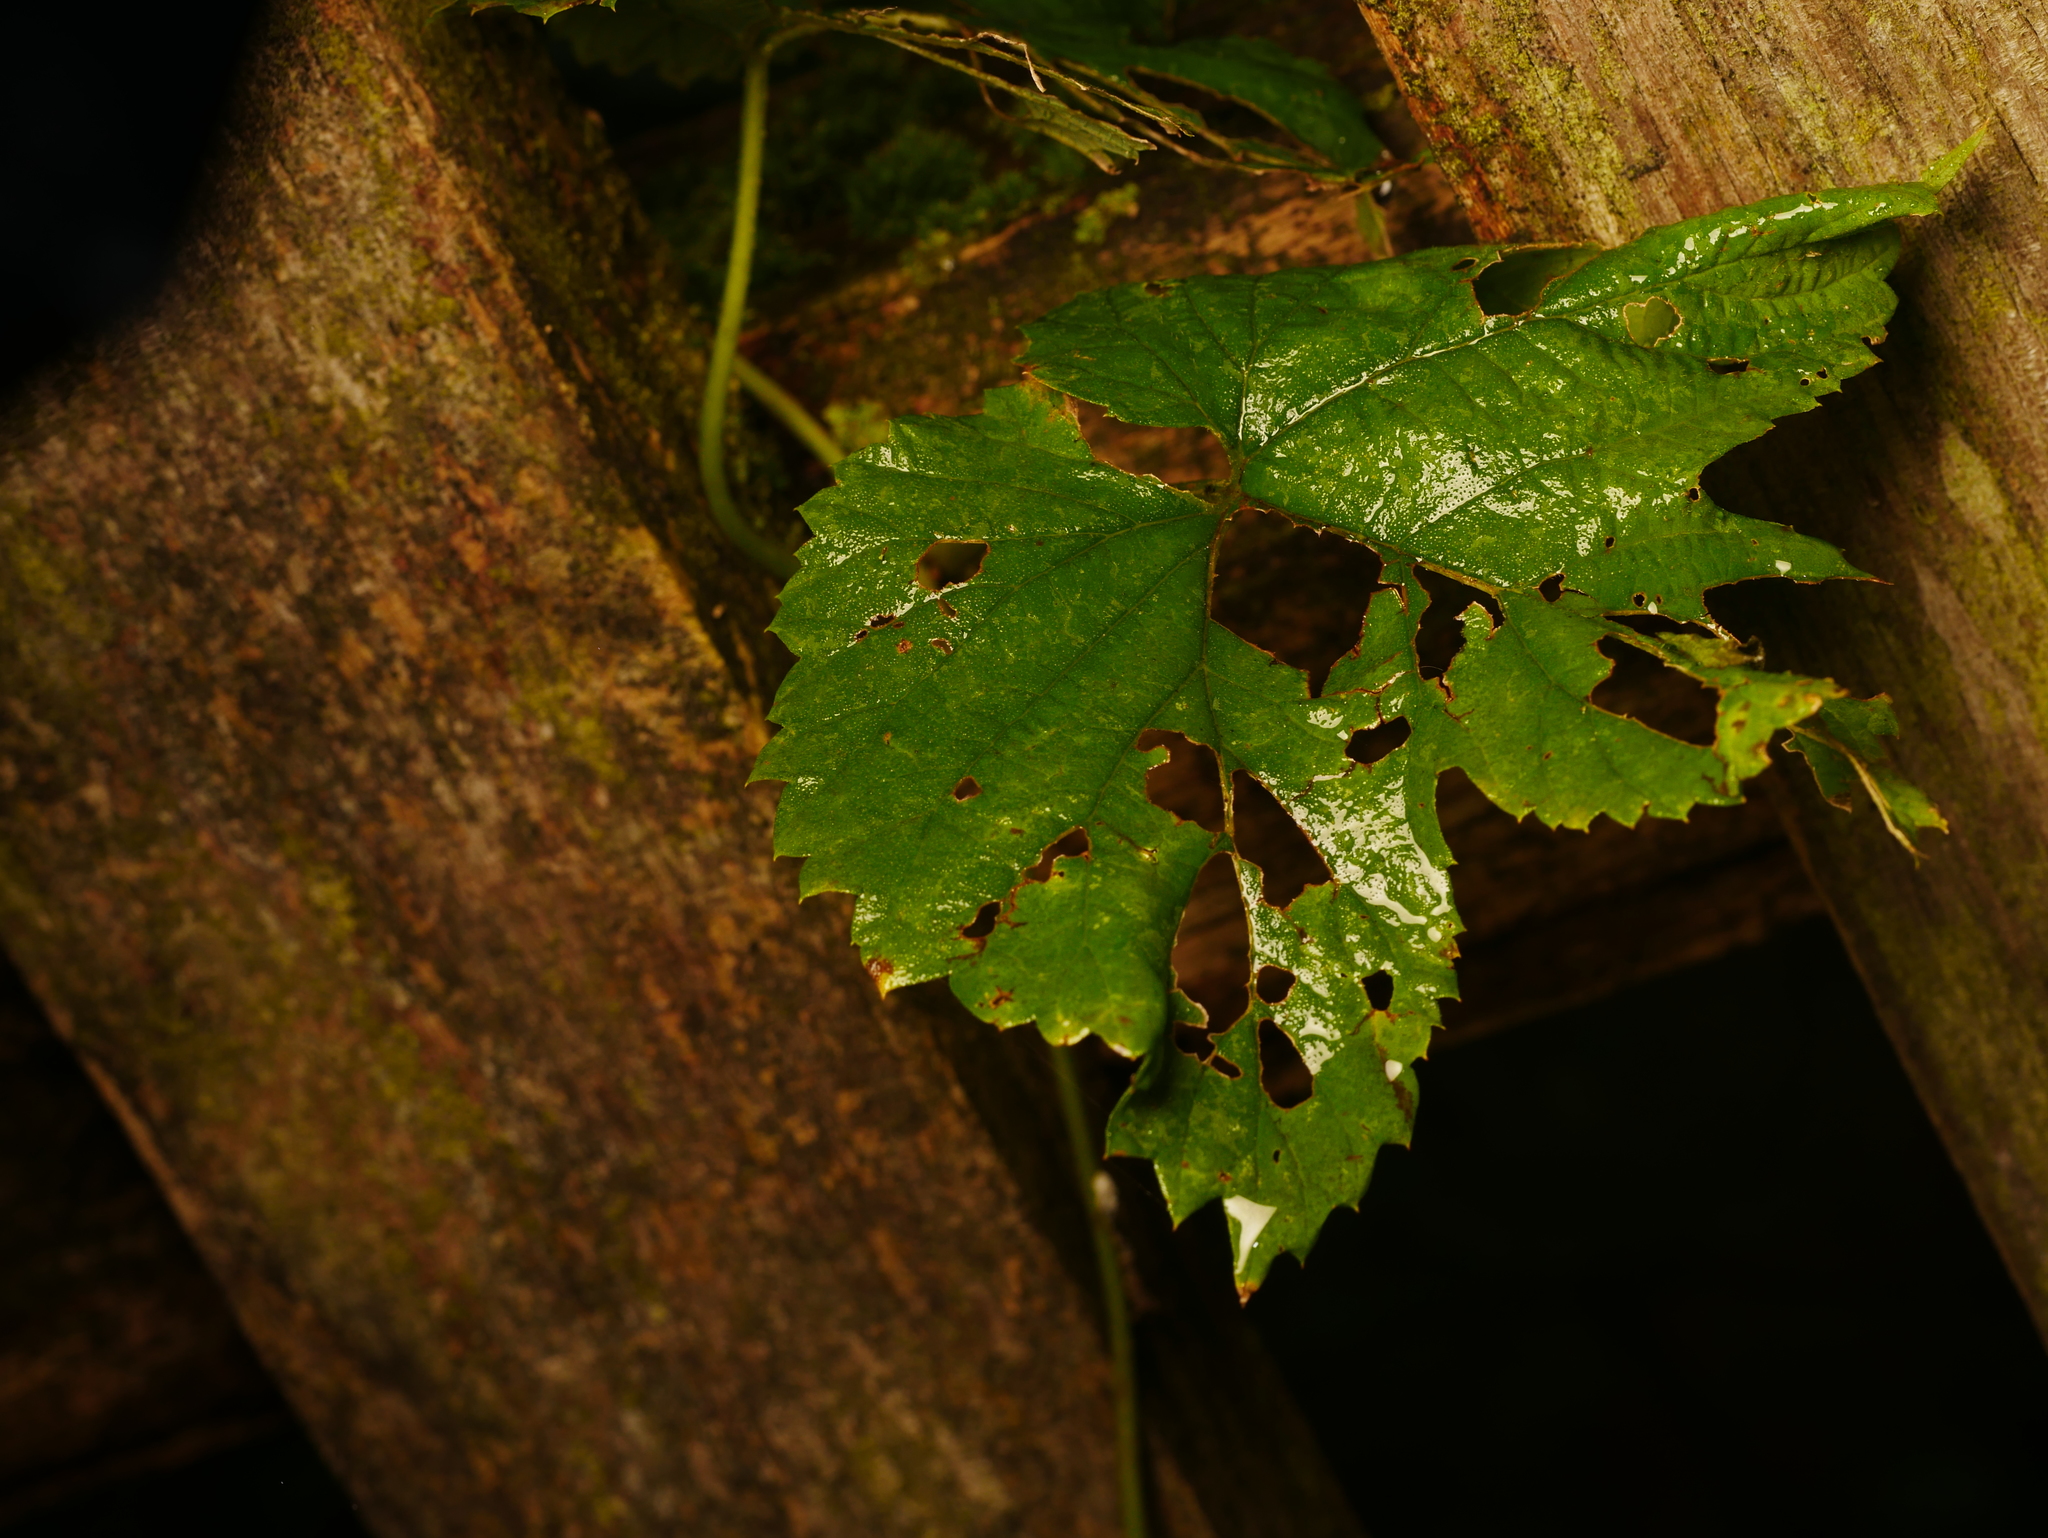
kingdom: Plantae
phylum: Tracheophyta
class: Magnoliopsida
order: Rosales
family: Cannabaceae
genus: Humulus
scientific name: Humulus lupulus
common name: Hop
